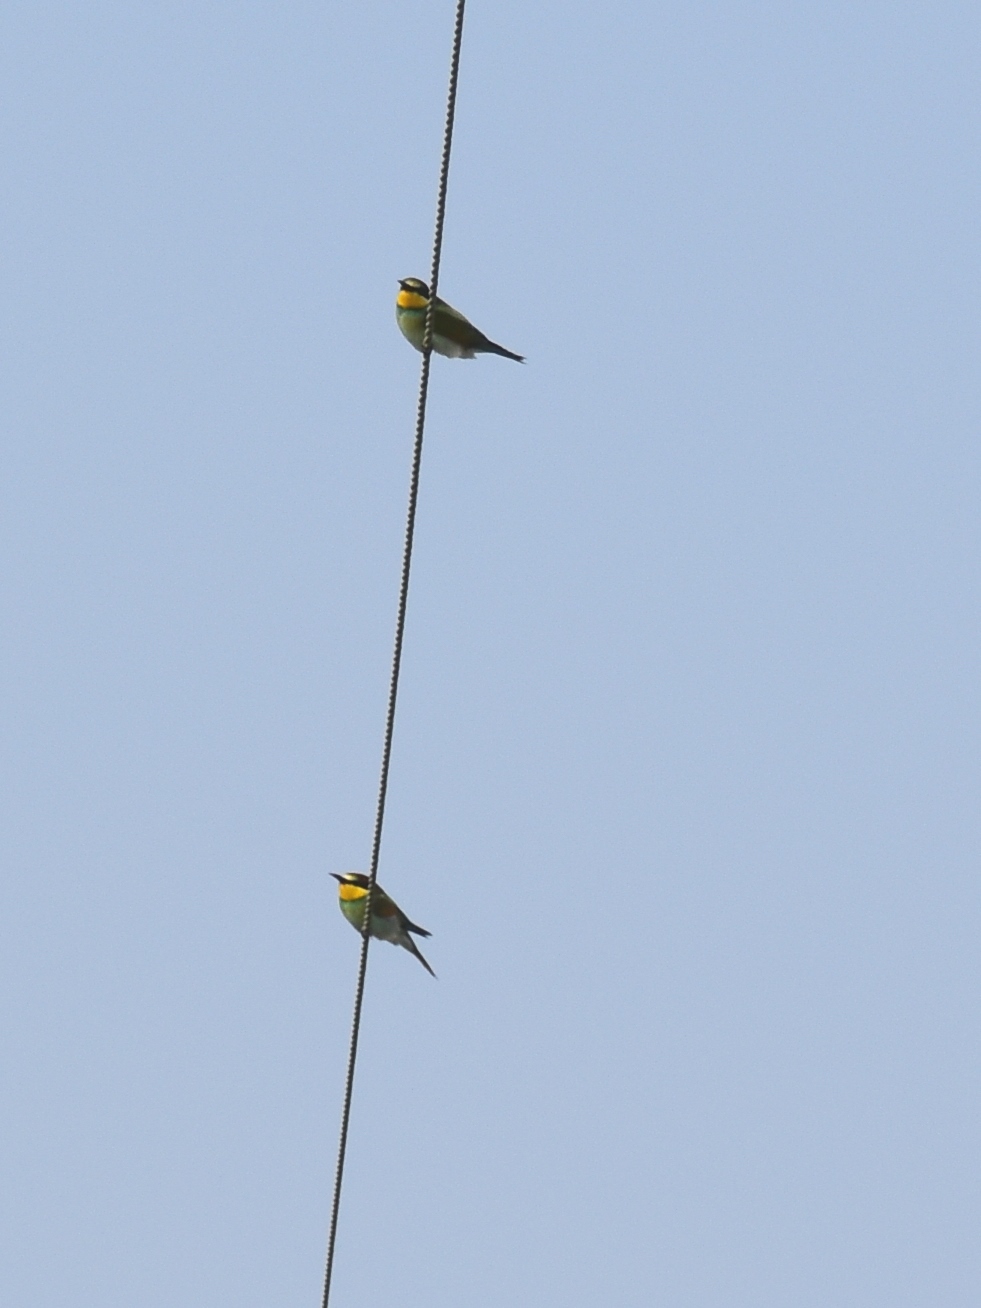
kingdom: Animalia
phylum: Chordata
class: Aves
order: Coraciiformes
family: Meropidae
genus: Merops
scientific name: Merops apiaster
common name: European bee-eater
